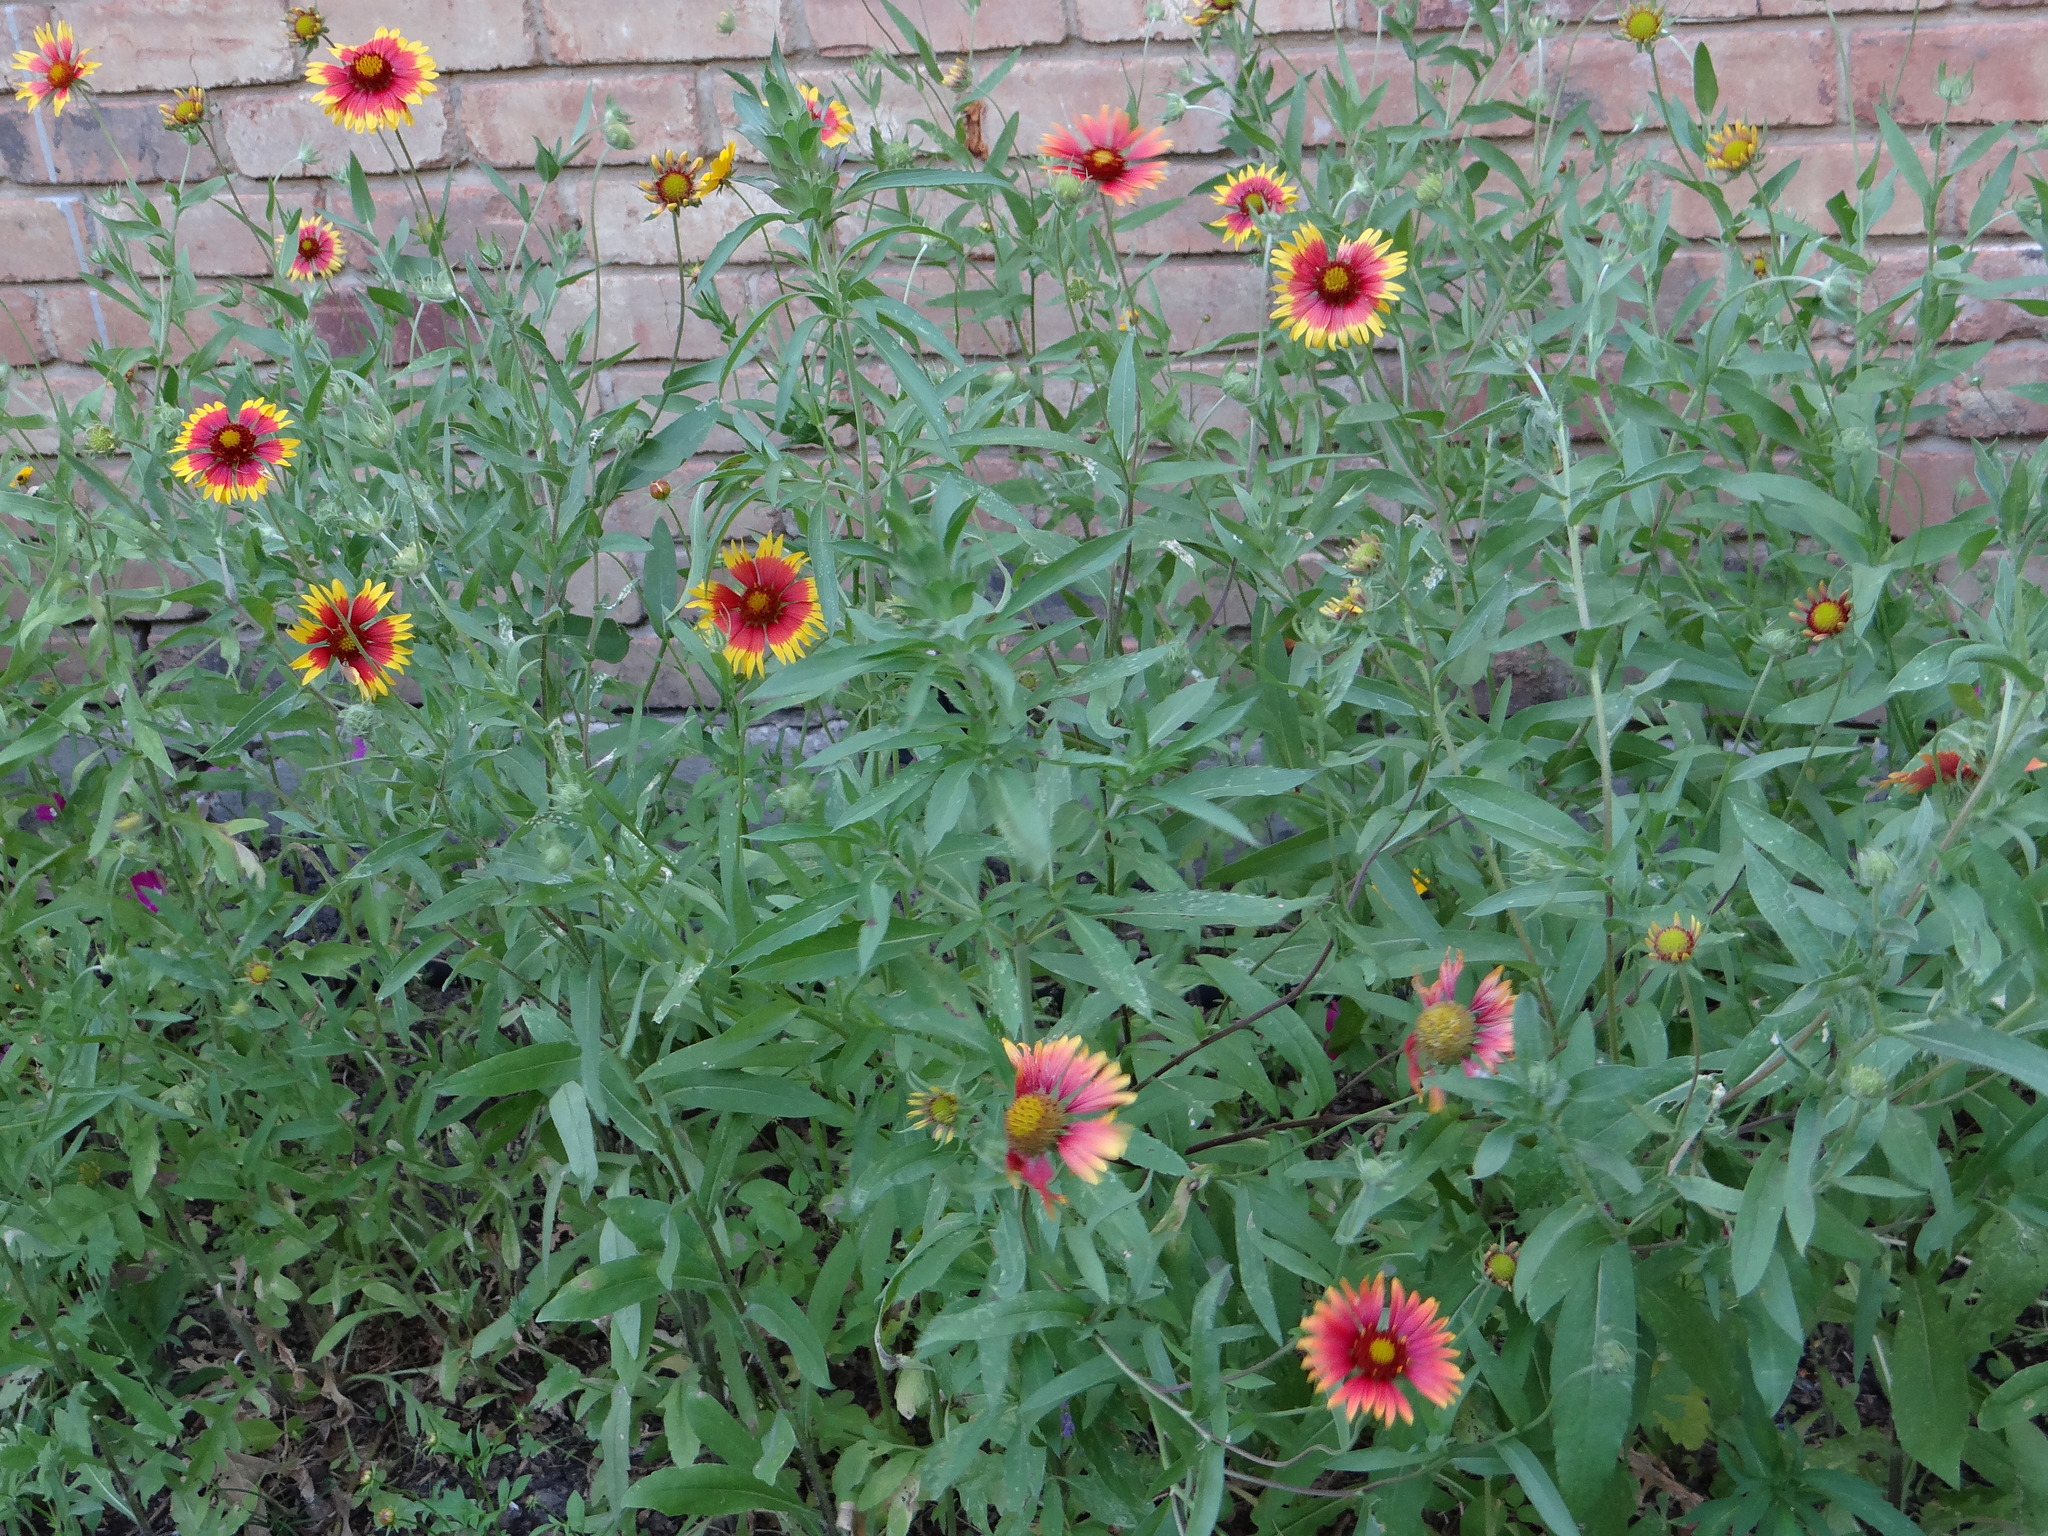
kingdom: Plantae
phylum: Tracheophyta
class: Magnoliopsida
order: Asterales
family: Asteraceae
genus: Gaillardia
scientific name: Gaillardia pulchella
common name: Firewheel
